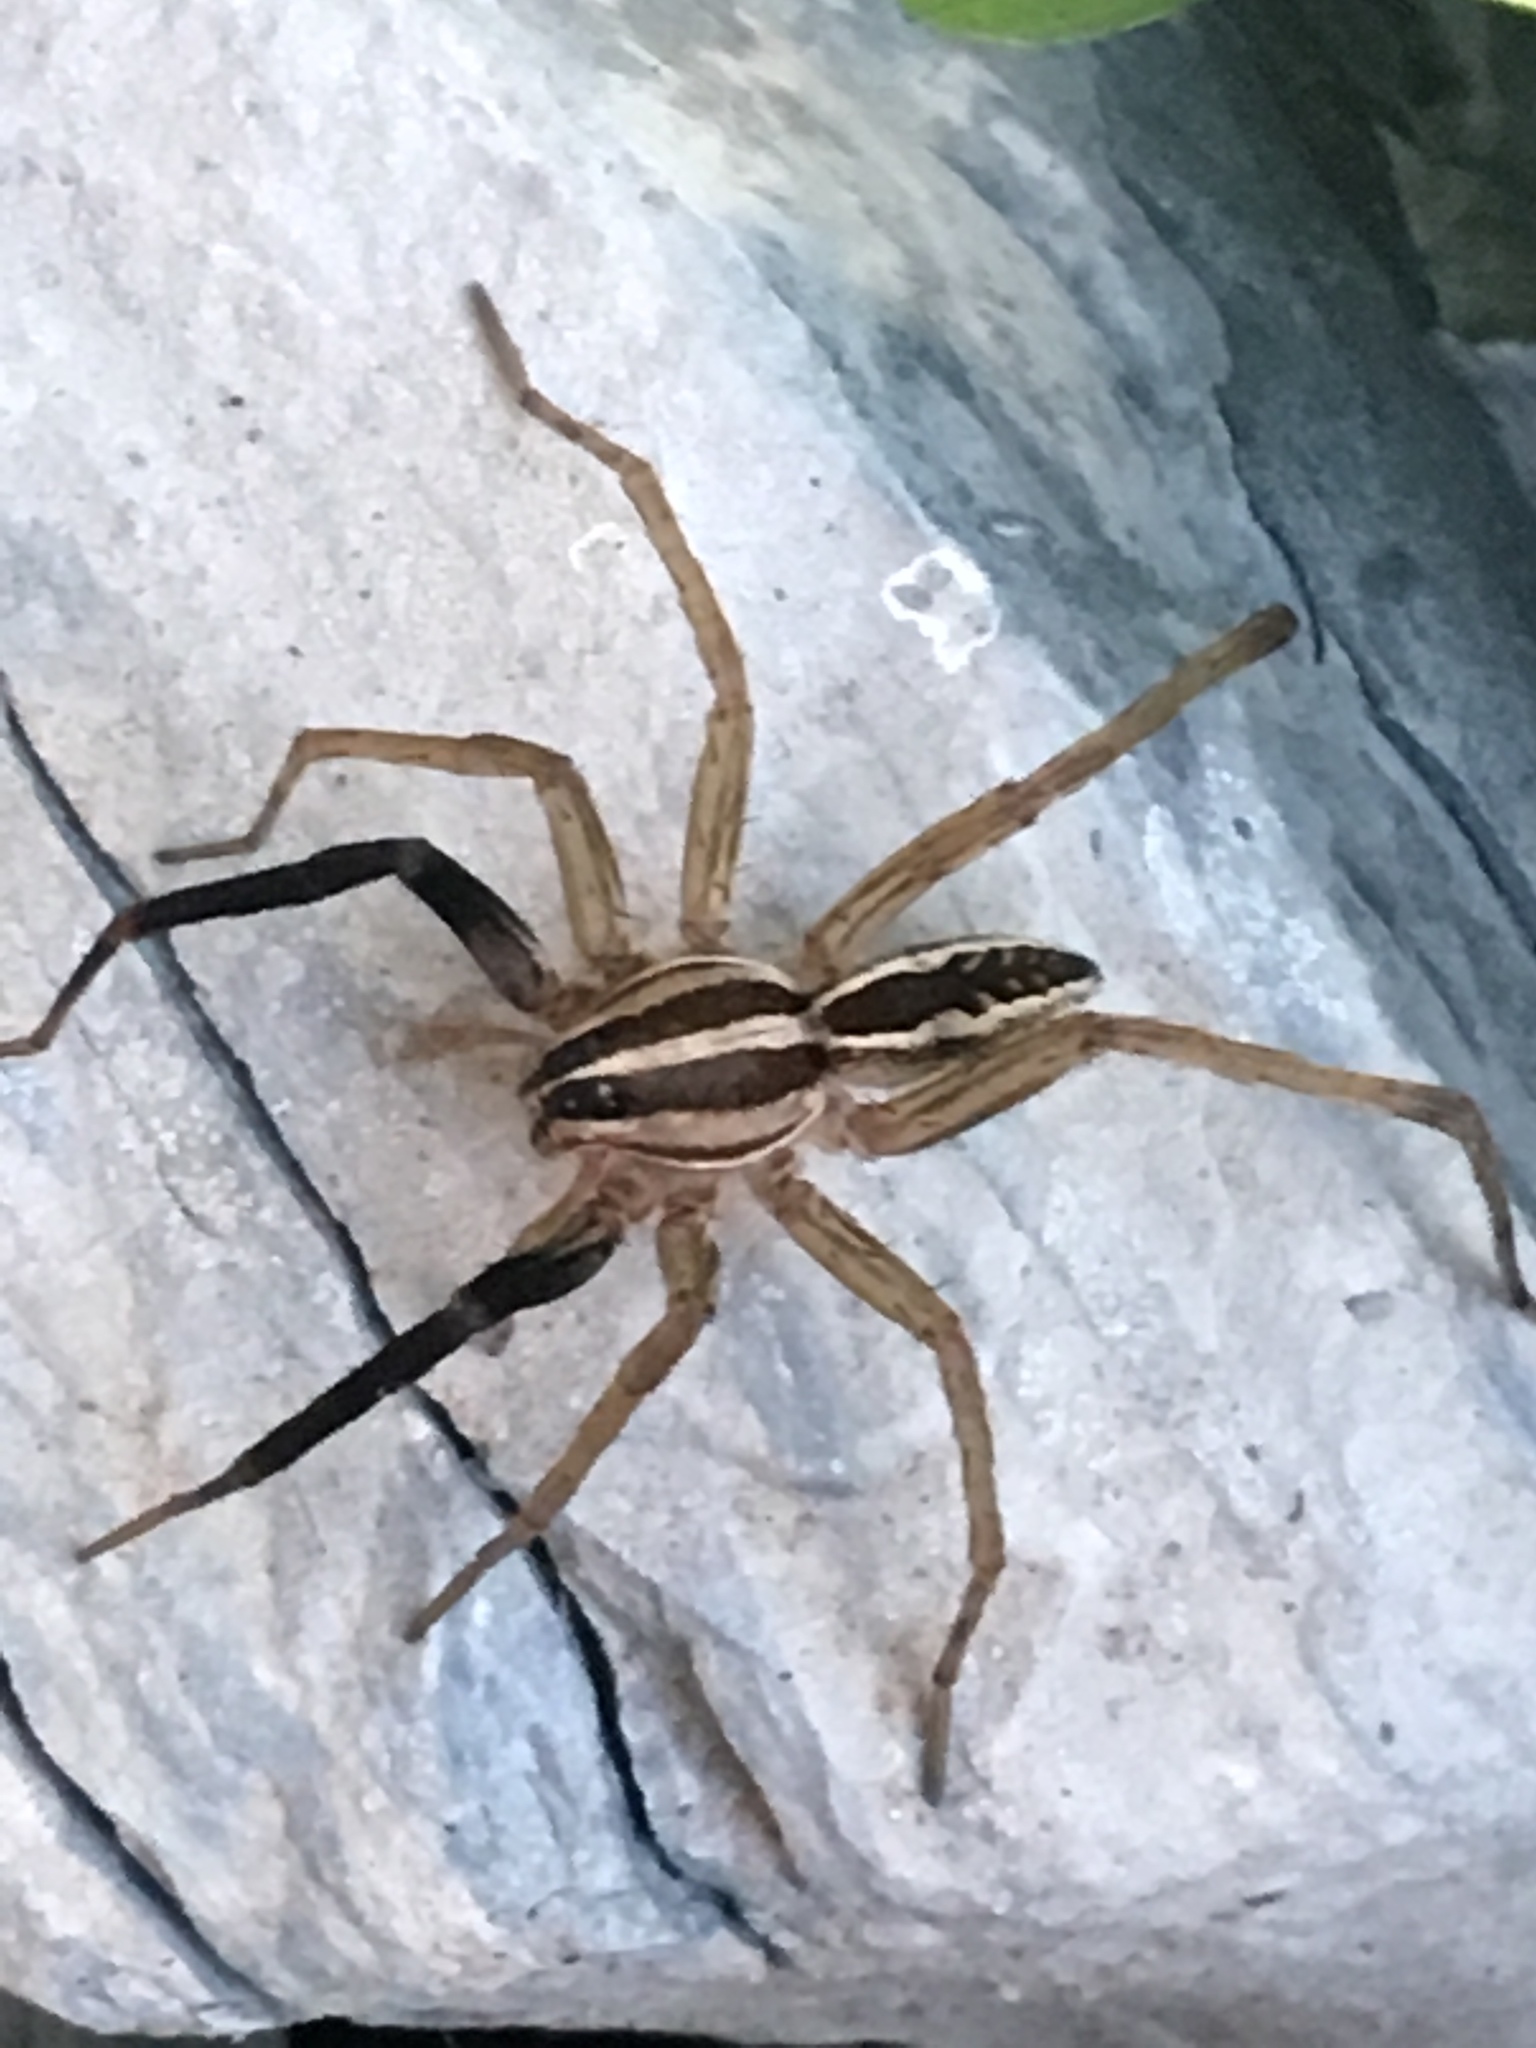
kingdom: Animalia
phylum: Arthropoda
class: Arachnida
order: Araneae
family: Lycosidae
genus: Rabidosa
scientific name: Rabidosa rabida
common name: Rabid wolf spider
